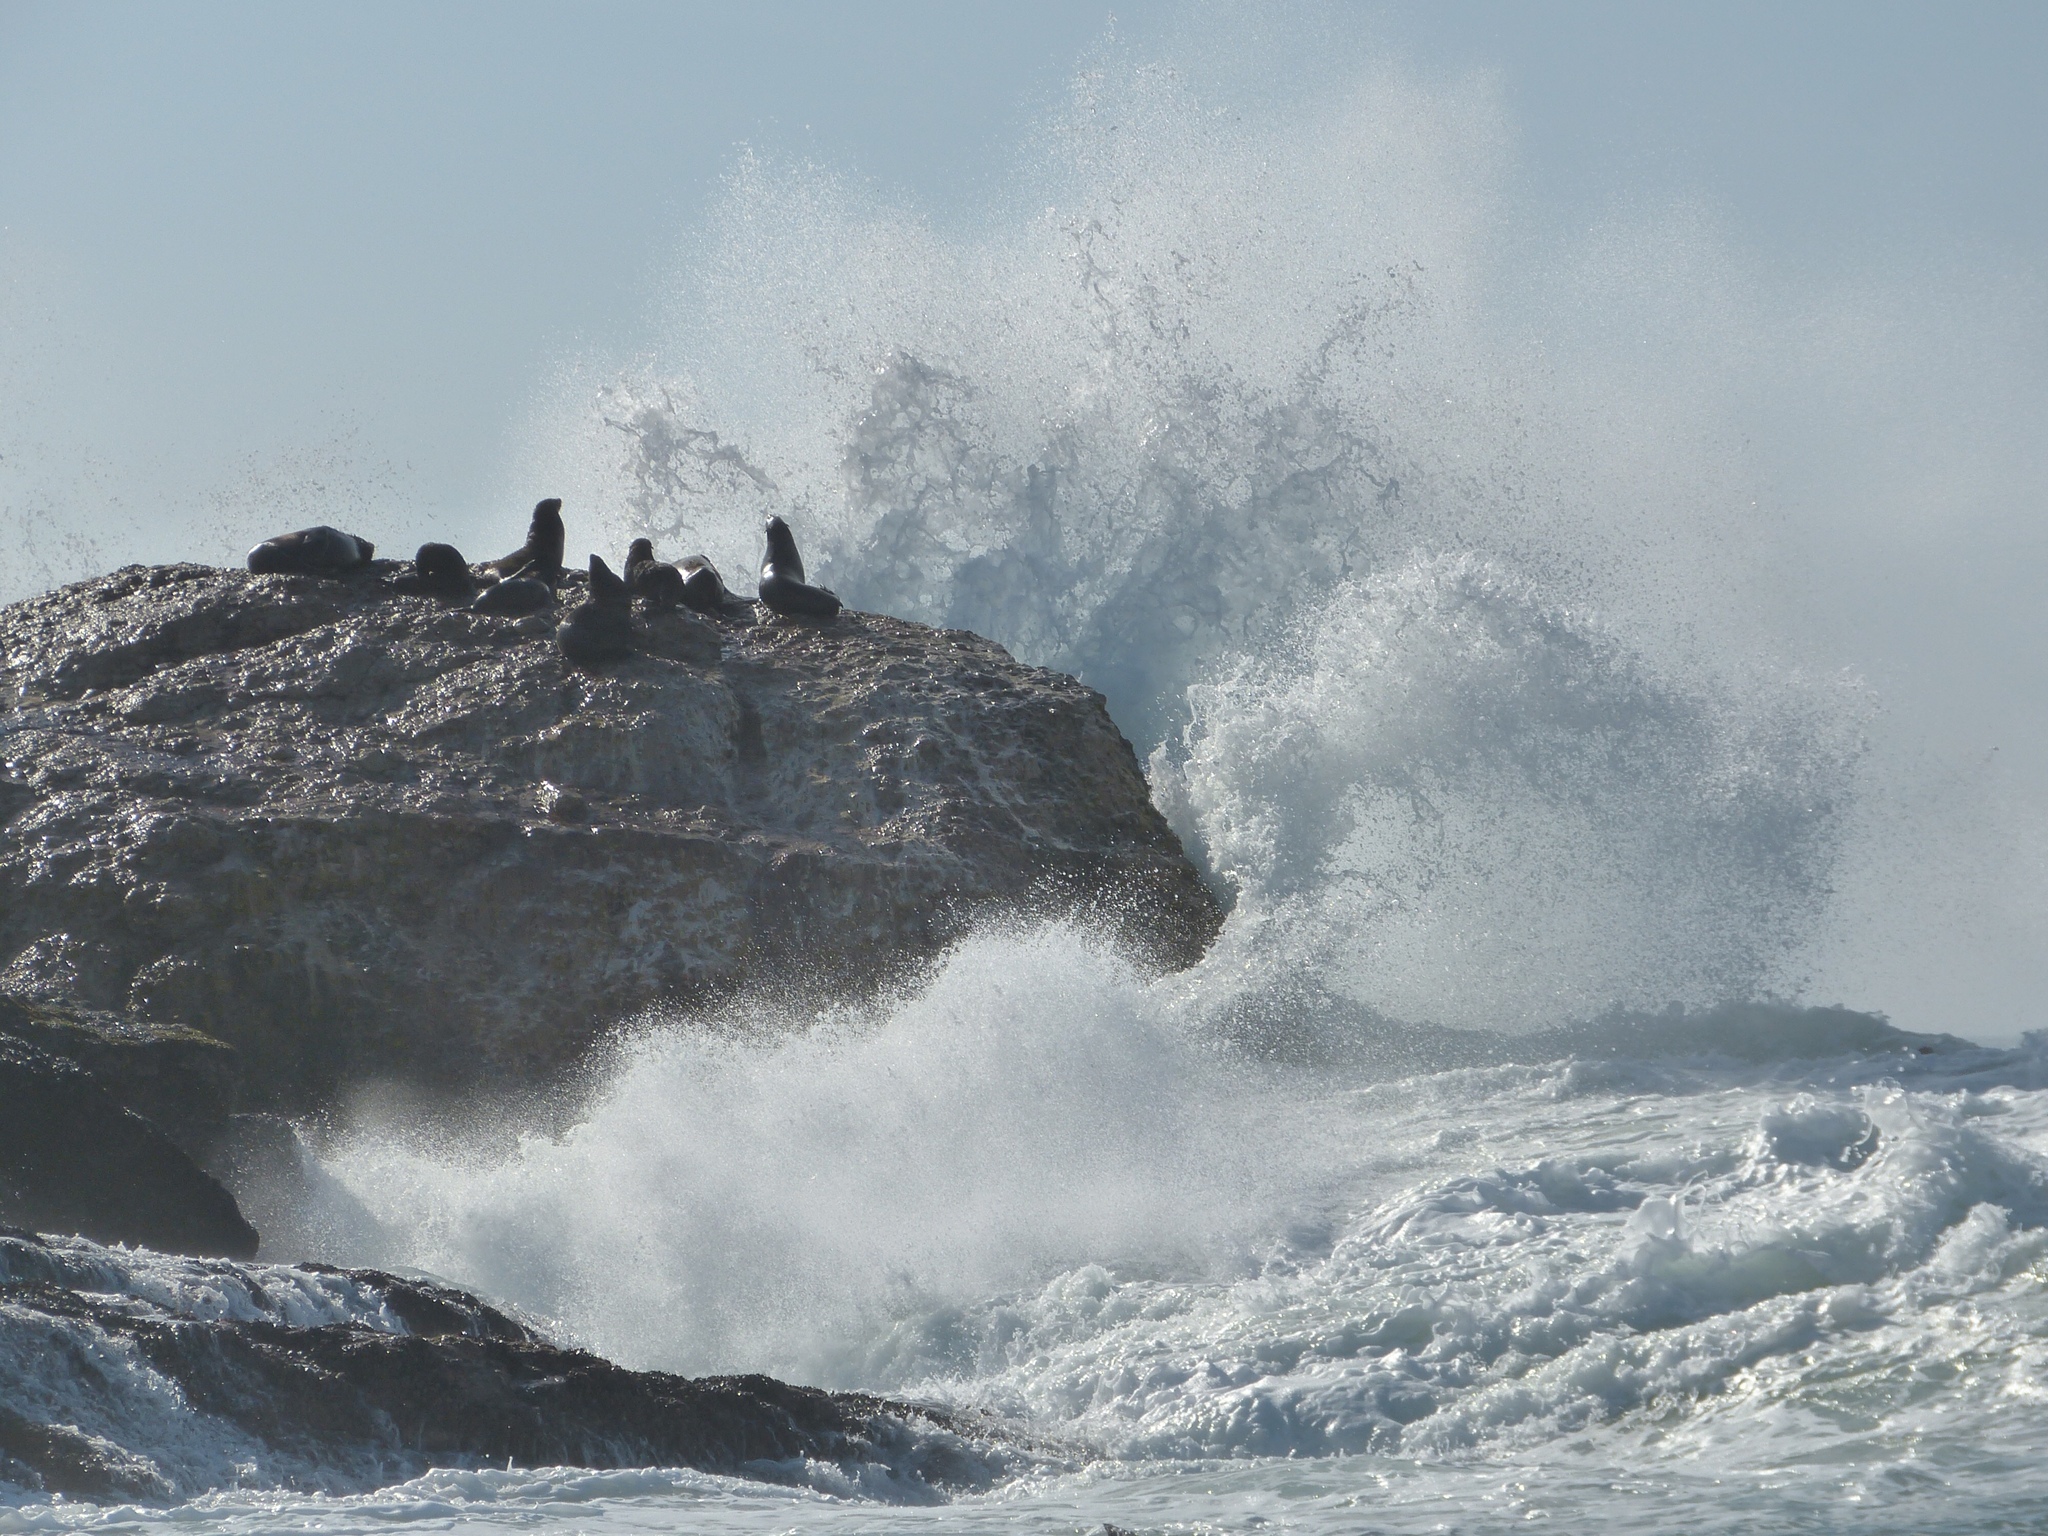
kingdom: Animalia
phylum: Chordata
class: Mammalia
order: Carnivora
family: Otariidae
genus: Arctocephalus
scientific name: Arctocephalus pusillus
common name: Brown fur seal
